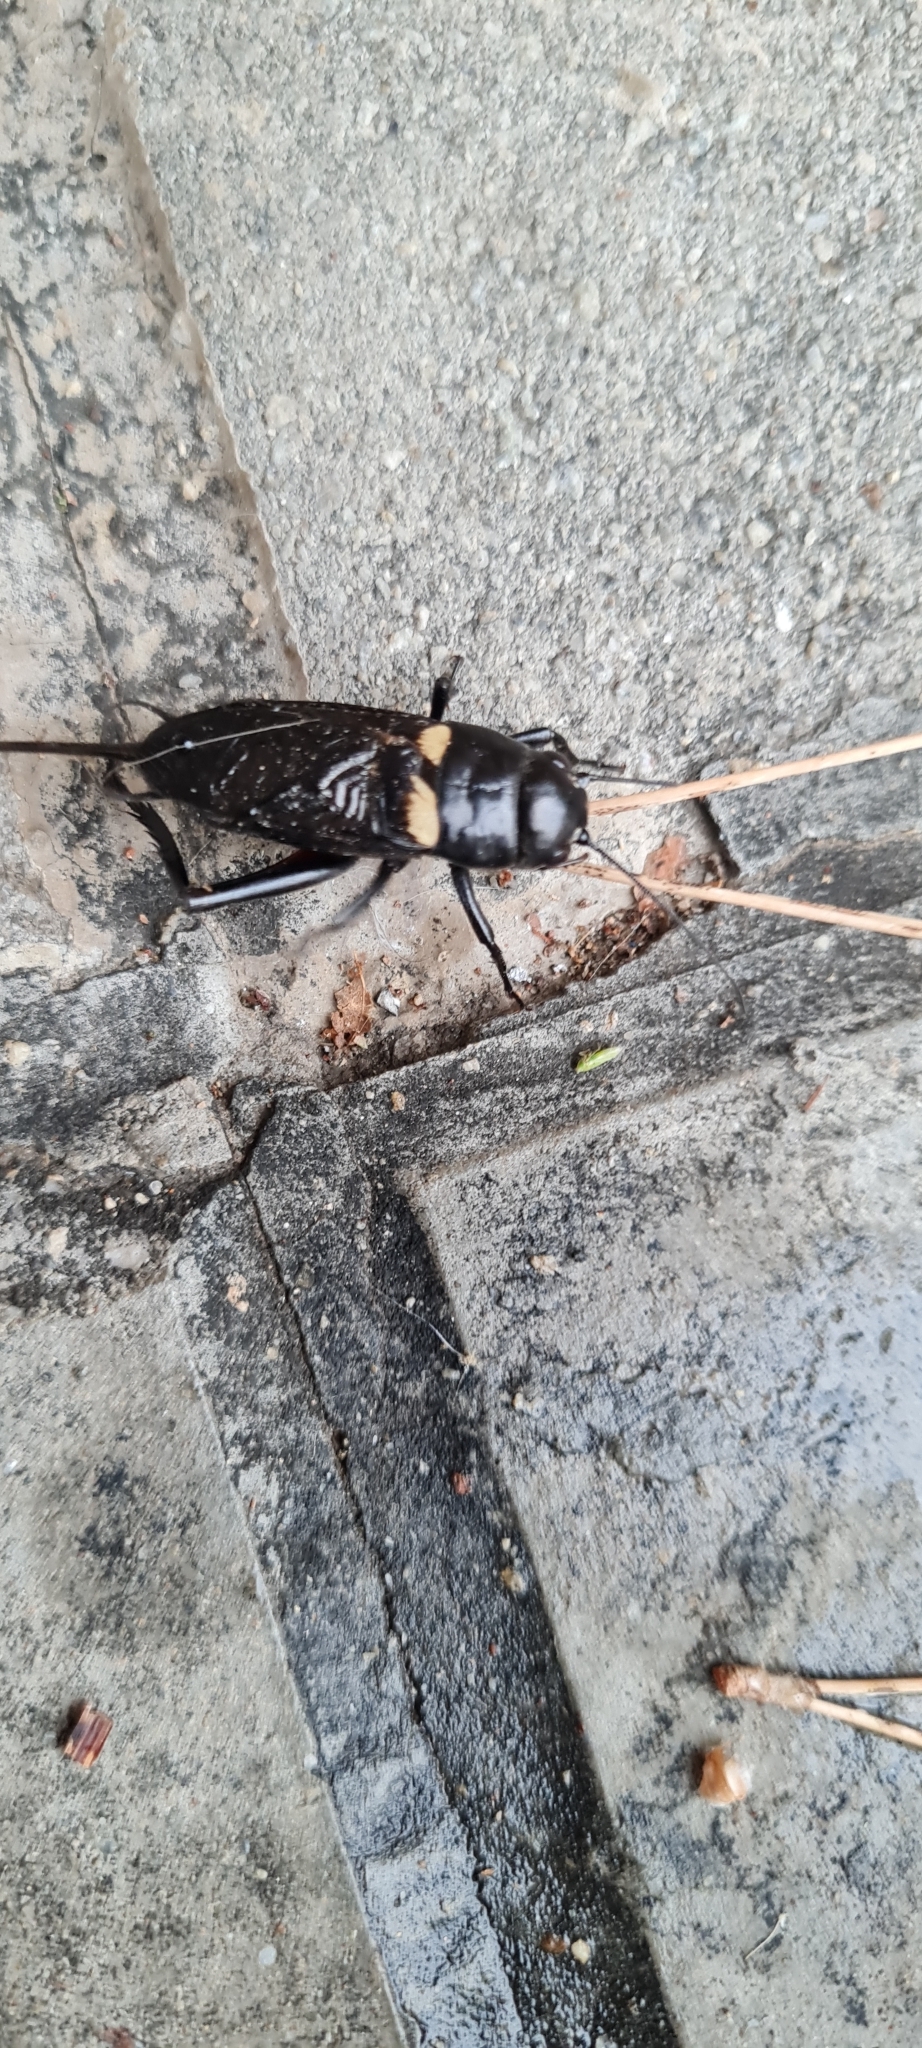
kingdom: Animalia
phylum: Arthropoda
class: Insecta
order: Orthoptera
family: Gryllidae
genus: Gryllus
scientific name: Gryllus bimaculatus
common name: Two-spotted cricket
